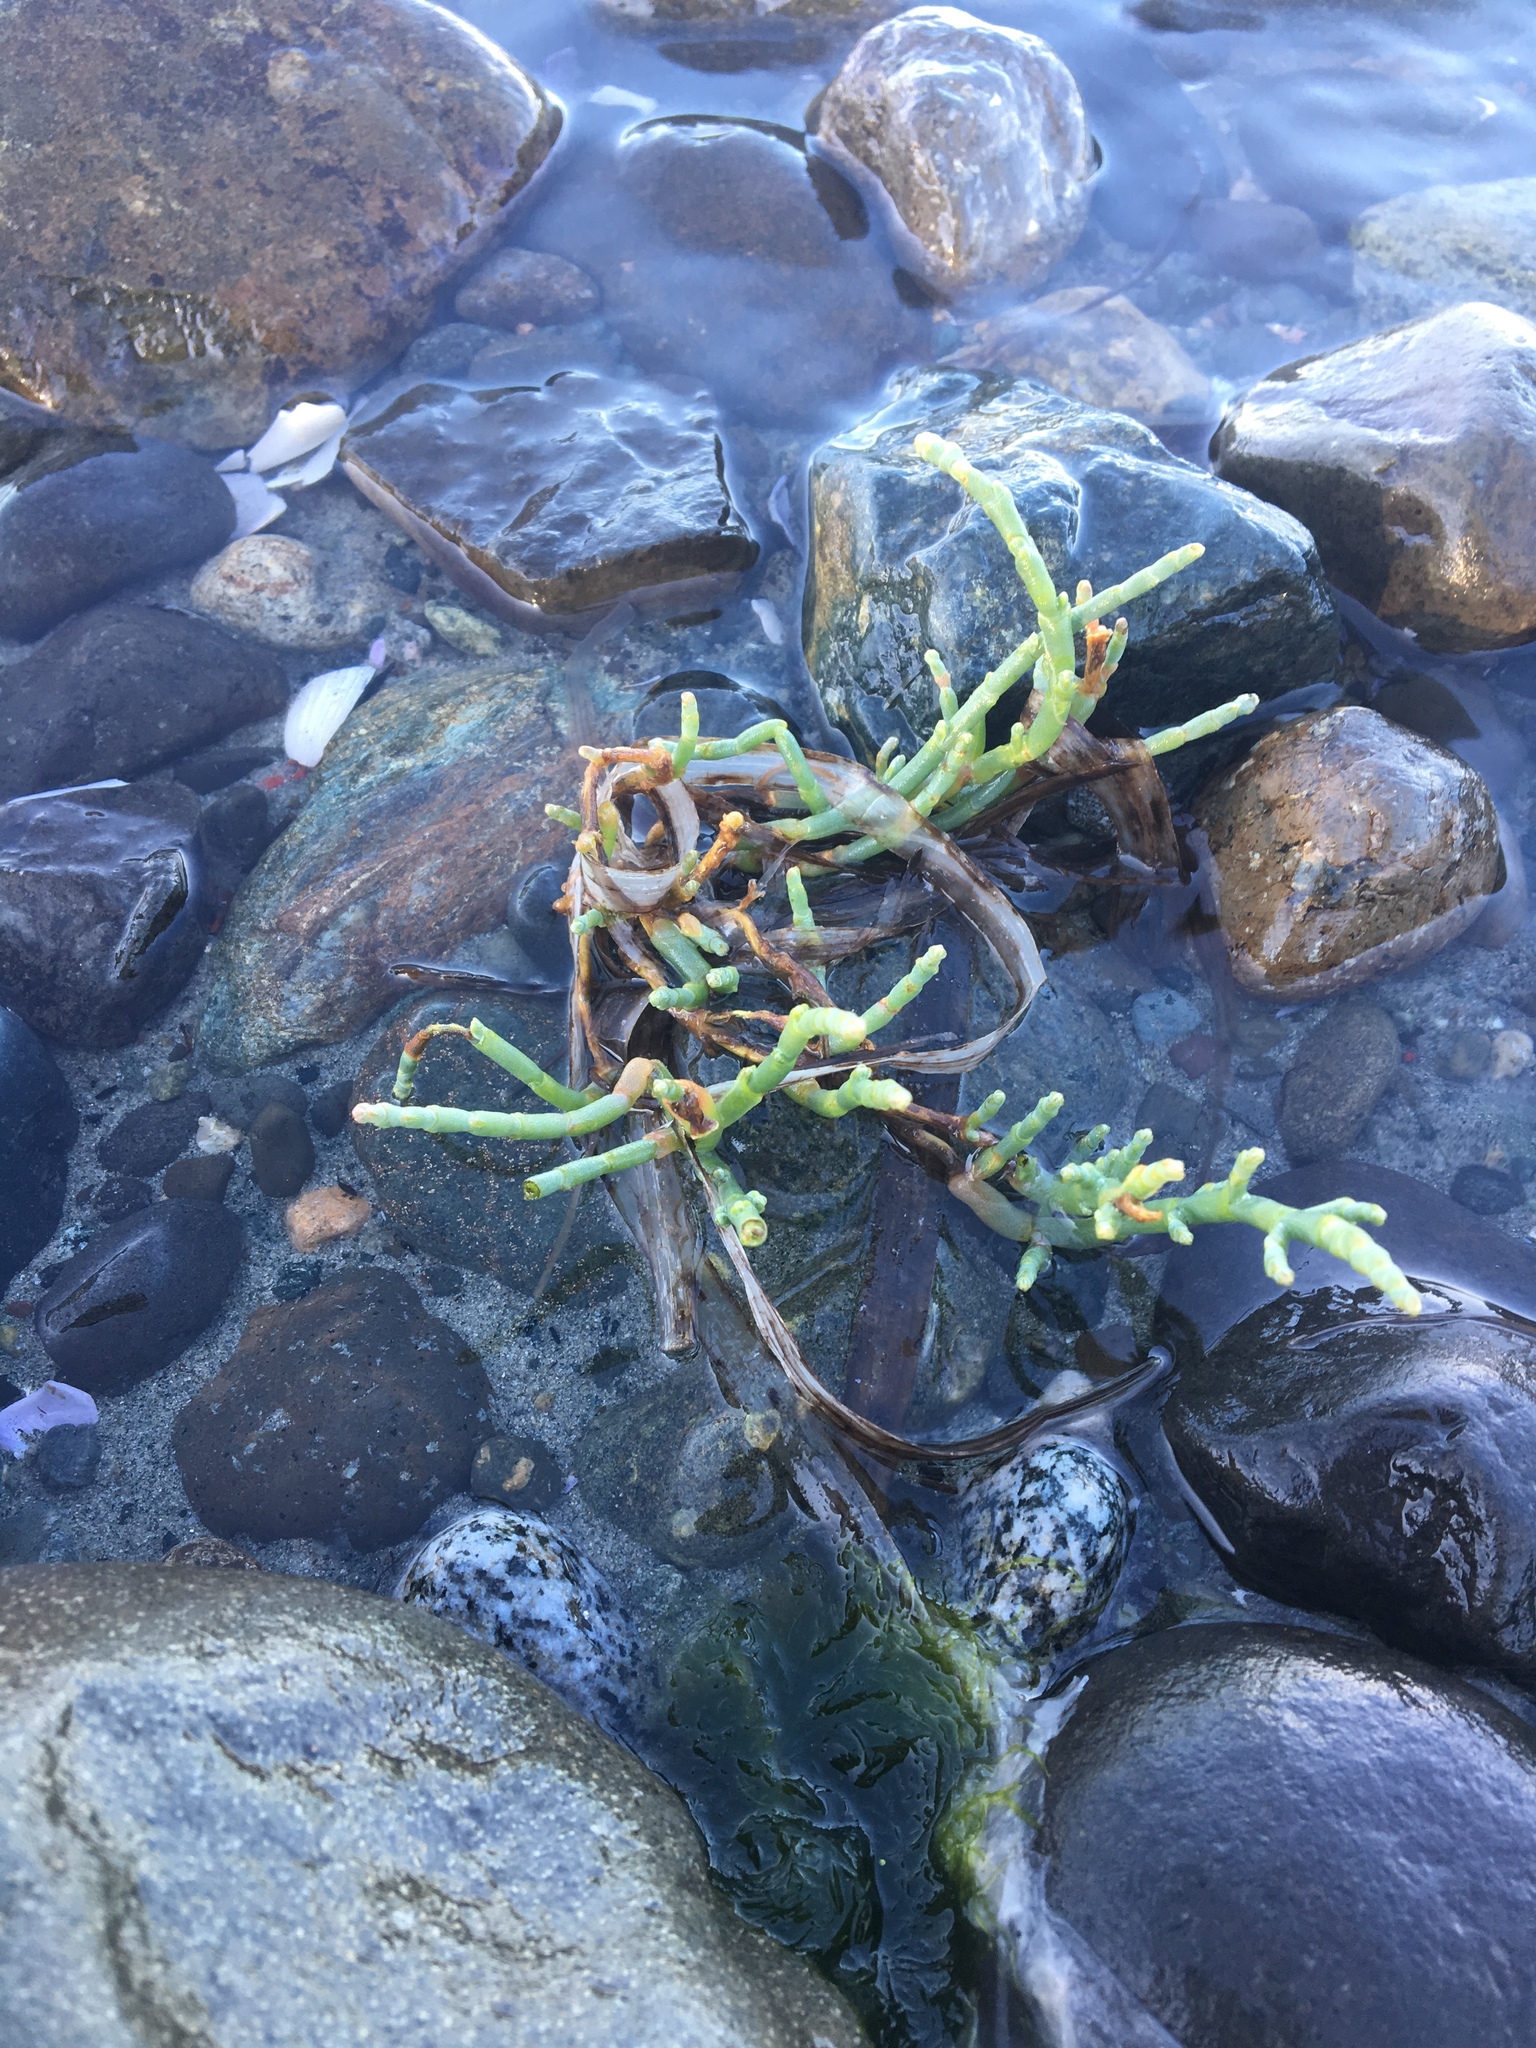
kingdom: Plantae
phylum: Tracheophyta
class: Magnoliopsida
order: Caryophyllales
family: Amaranthaceae
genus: Salicornia
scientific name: Salicornia pacifica
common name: Pacific glasswort
